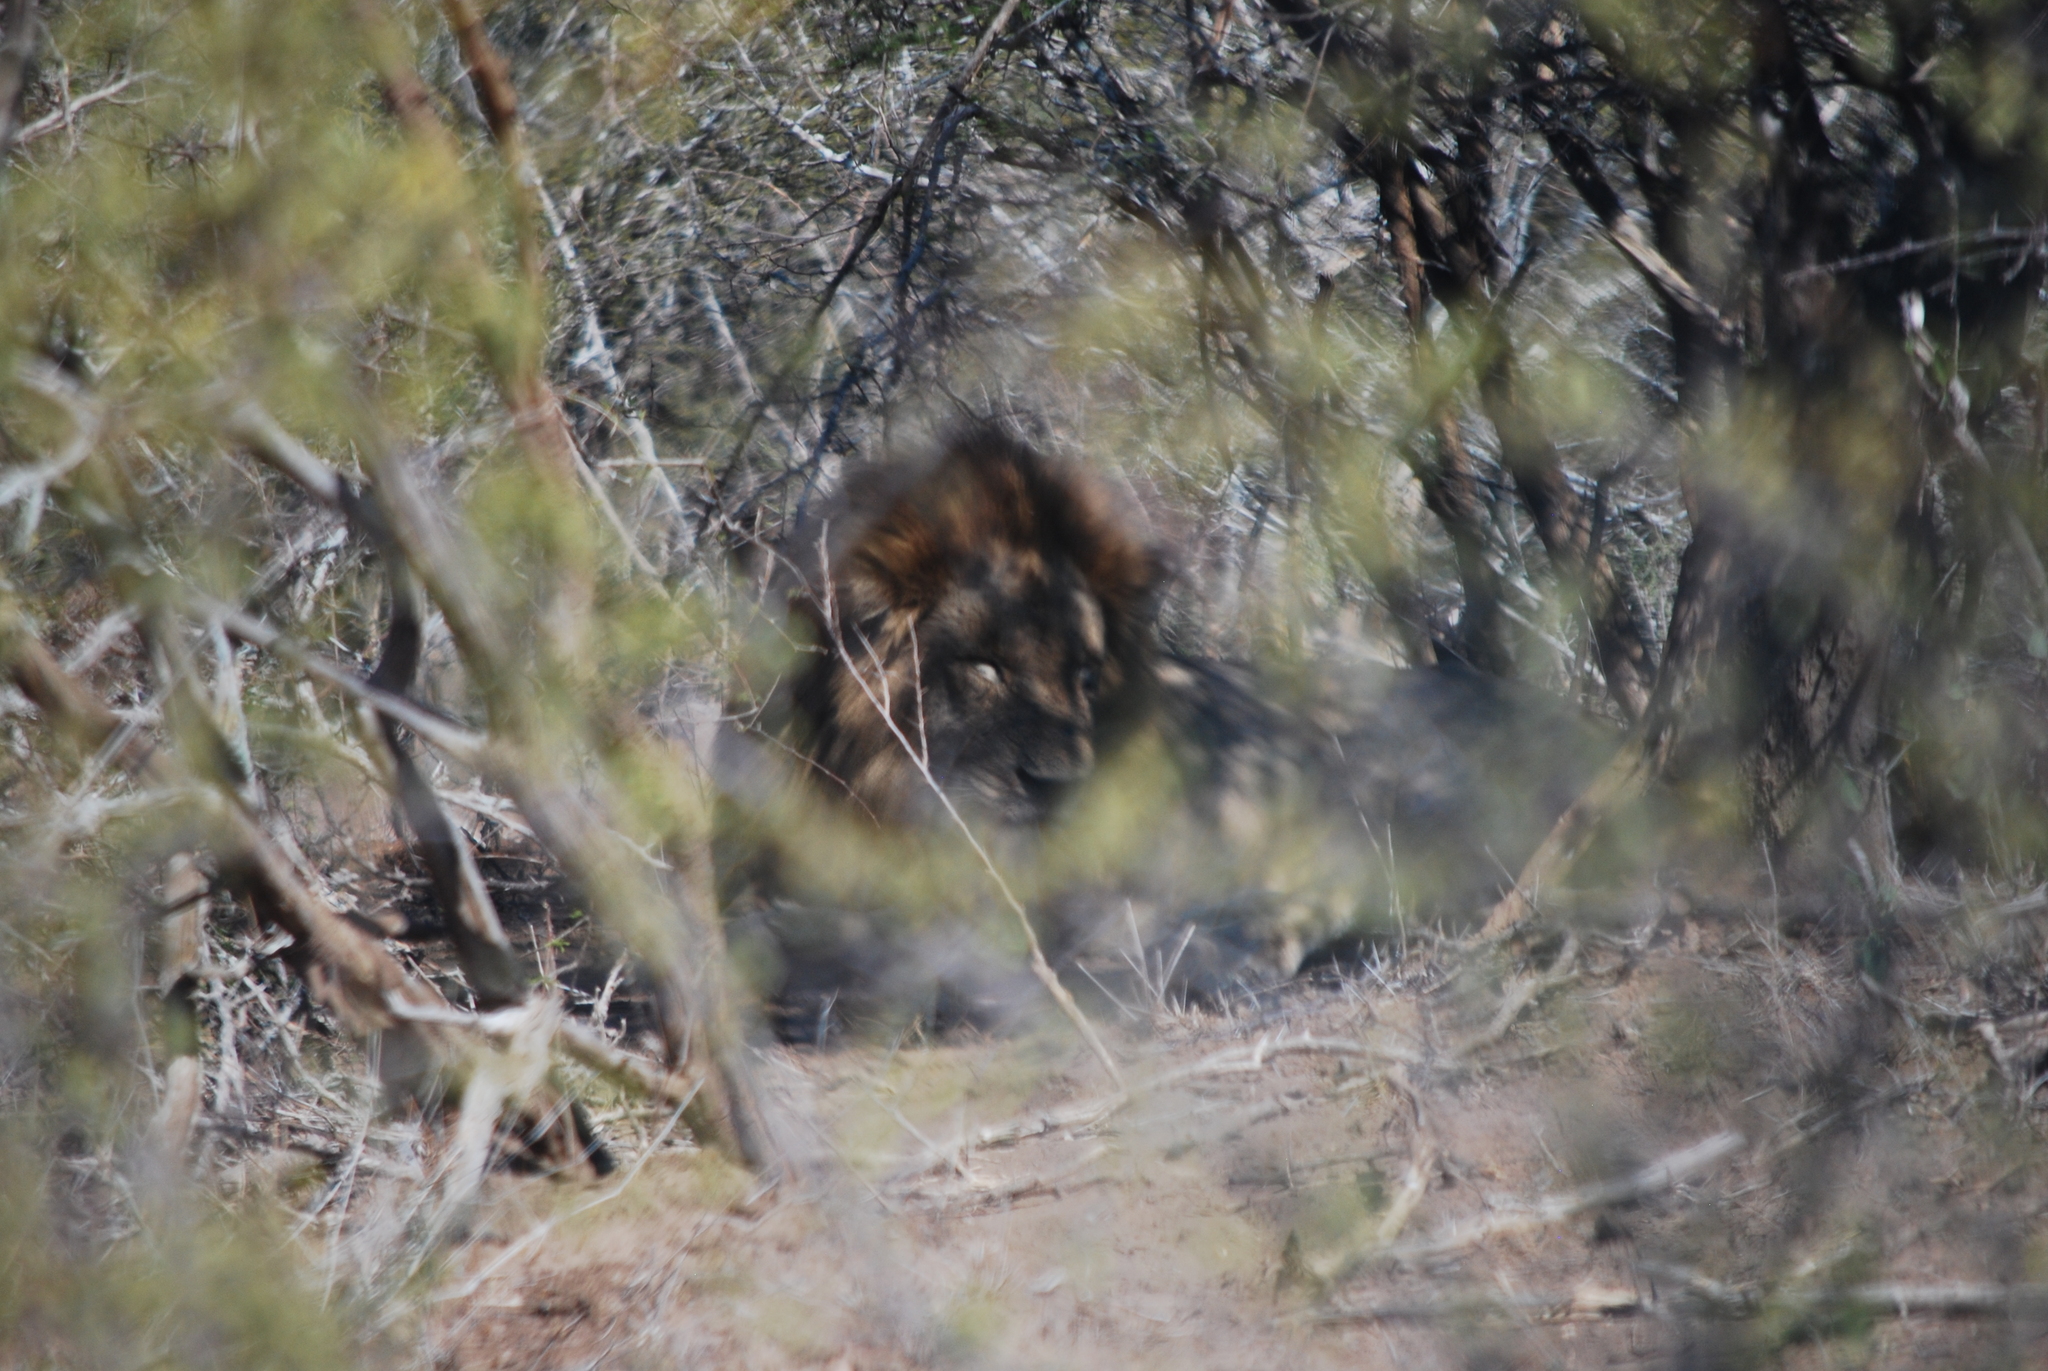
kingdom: Animalia
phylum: Chordata
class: Mammalia
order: Carnivora
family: Felidae
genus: Panthera
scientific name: Panthera leo
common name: Lion
